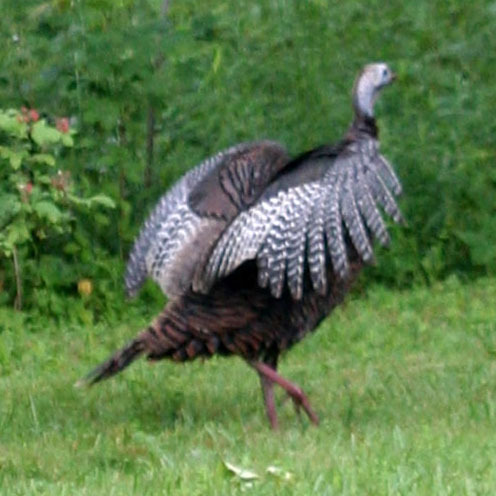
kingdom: Animalia
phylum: Chordata
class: Aves
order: Galliformes
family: Phasianidae
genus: Meleagris
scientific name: Meleagris gallopavo
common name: Wild turkey
